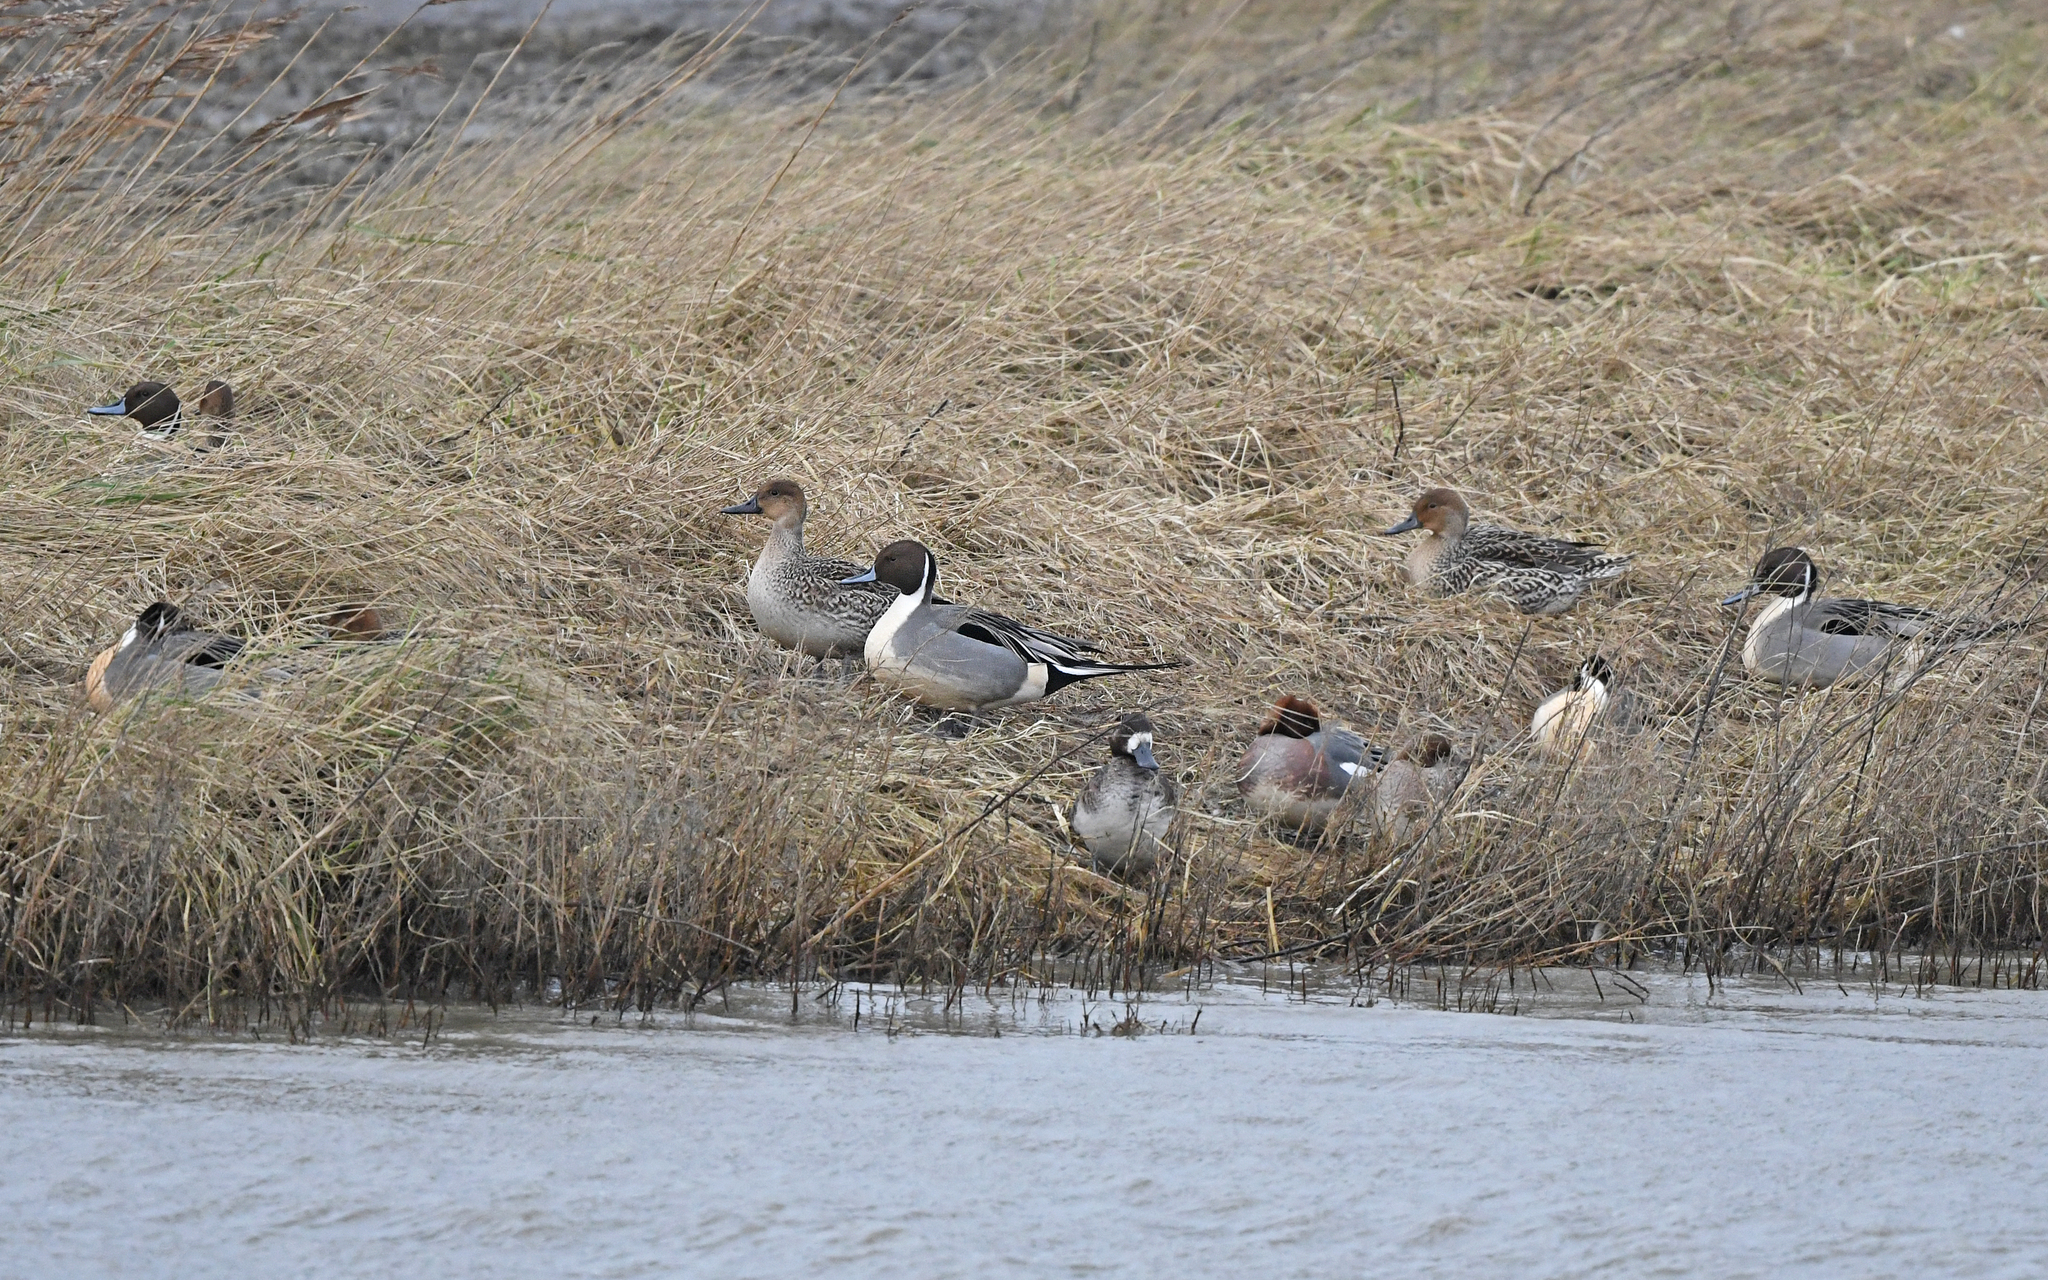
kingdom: Animalia
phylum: Chordata
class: Aves
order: Anseriformes
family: Anatidae
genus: Anas
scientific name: Anas acuta
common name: Northern pintail
